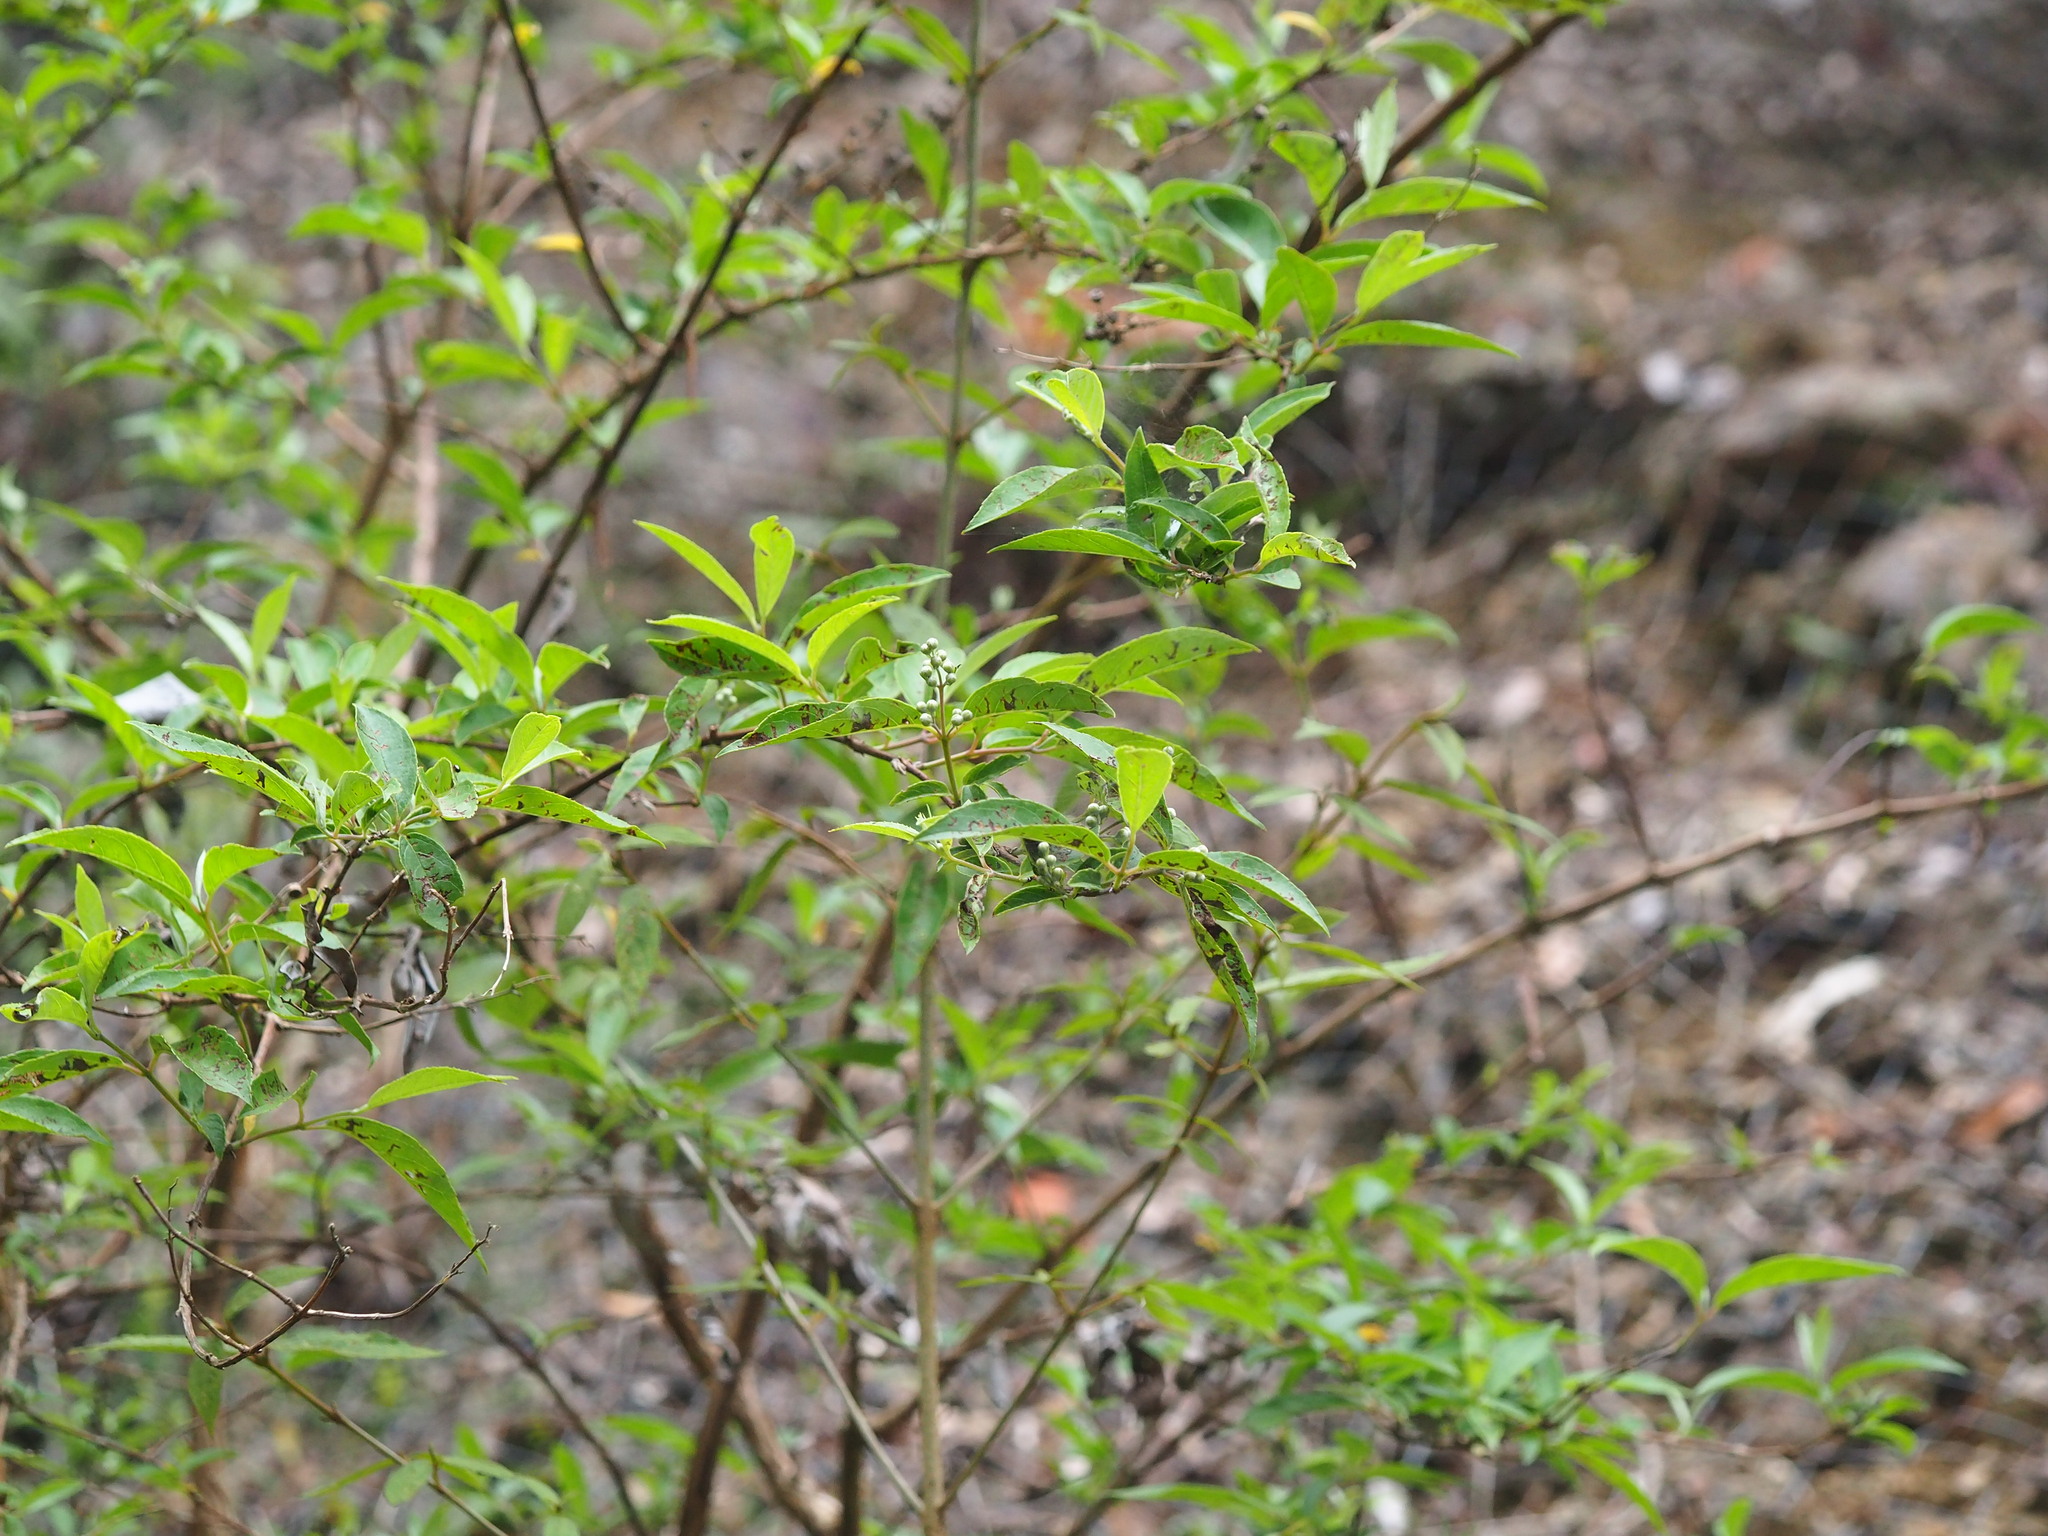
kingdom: Plantae
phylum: Tracheophyta
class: Magnoliopsida
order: Cornales
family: Hydrangeaceae
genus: Deutzia
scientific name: Deutzia pulchra
